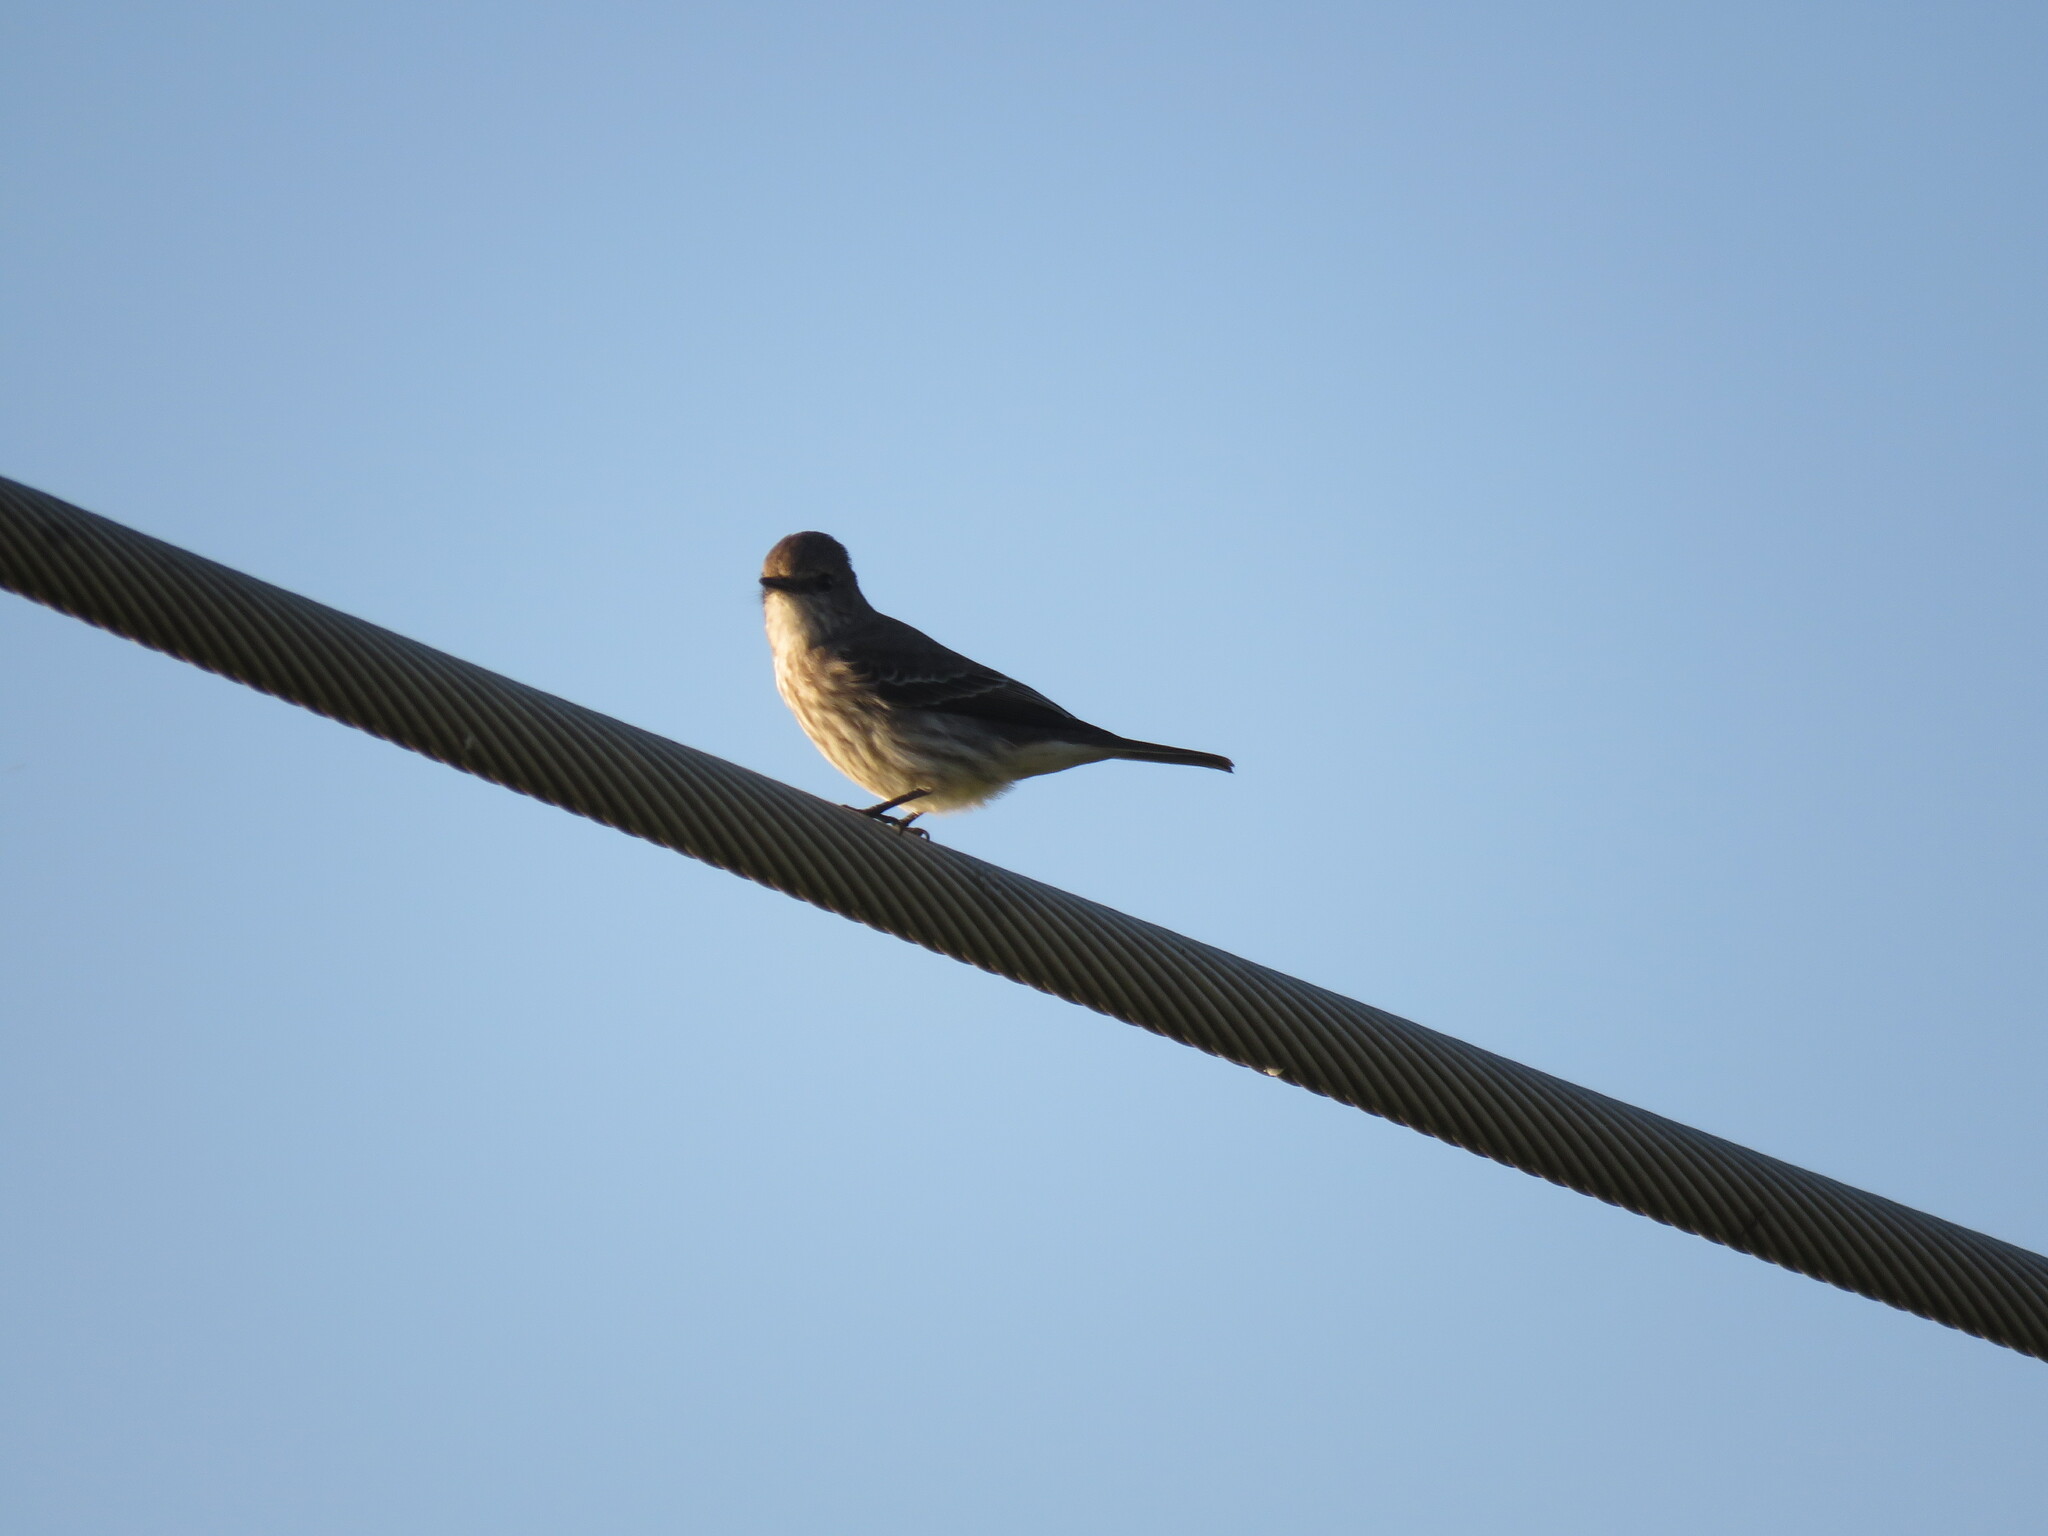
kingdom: Animalia
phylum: Chordata
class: Aves
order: Passeriformes
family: Tyrannidae
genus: Pyrocephalus
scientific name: Pyrocephalus rubinus
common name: Vermilion flycatcher
